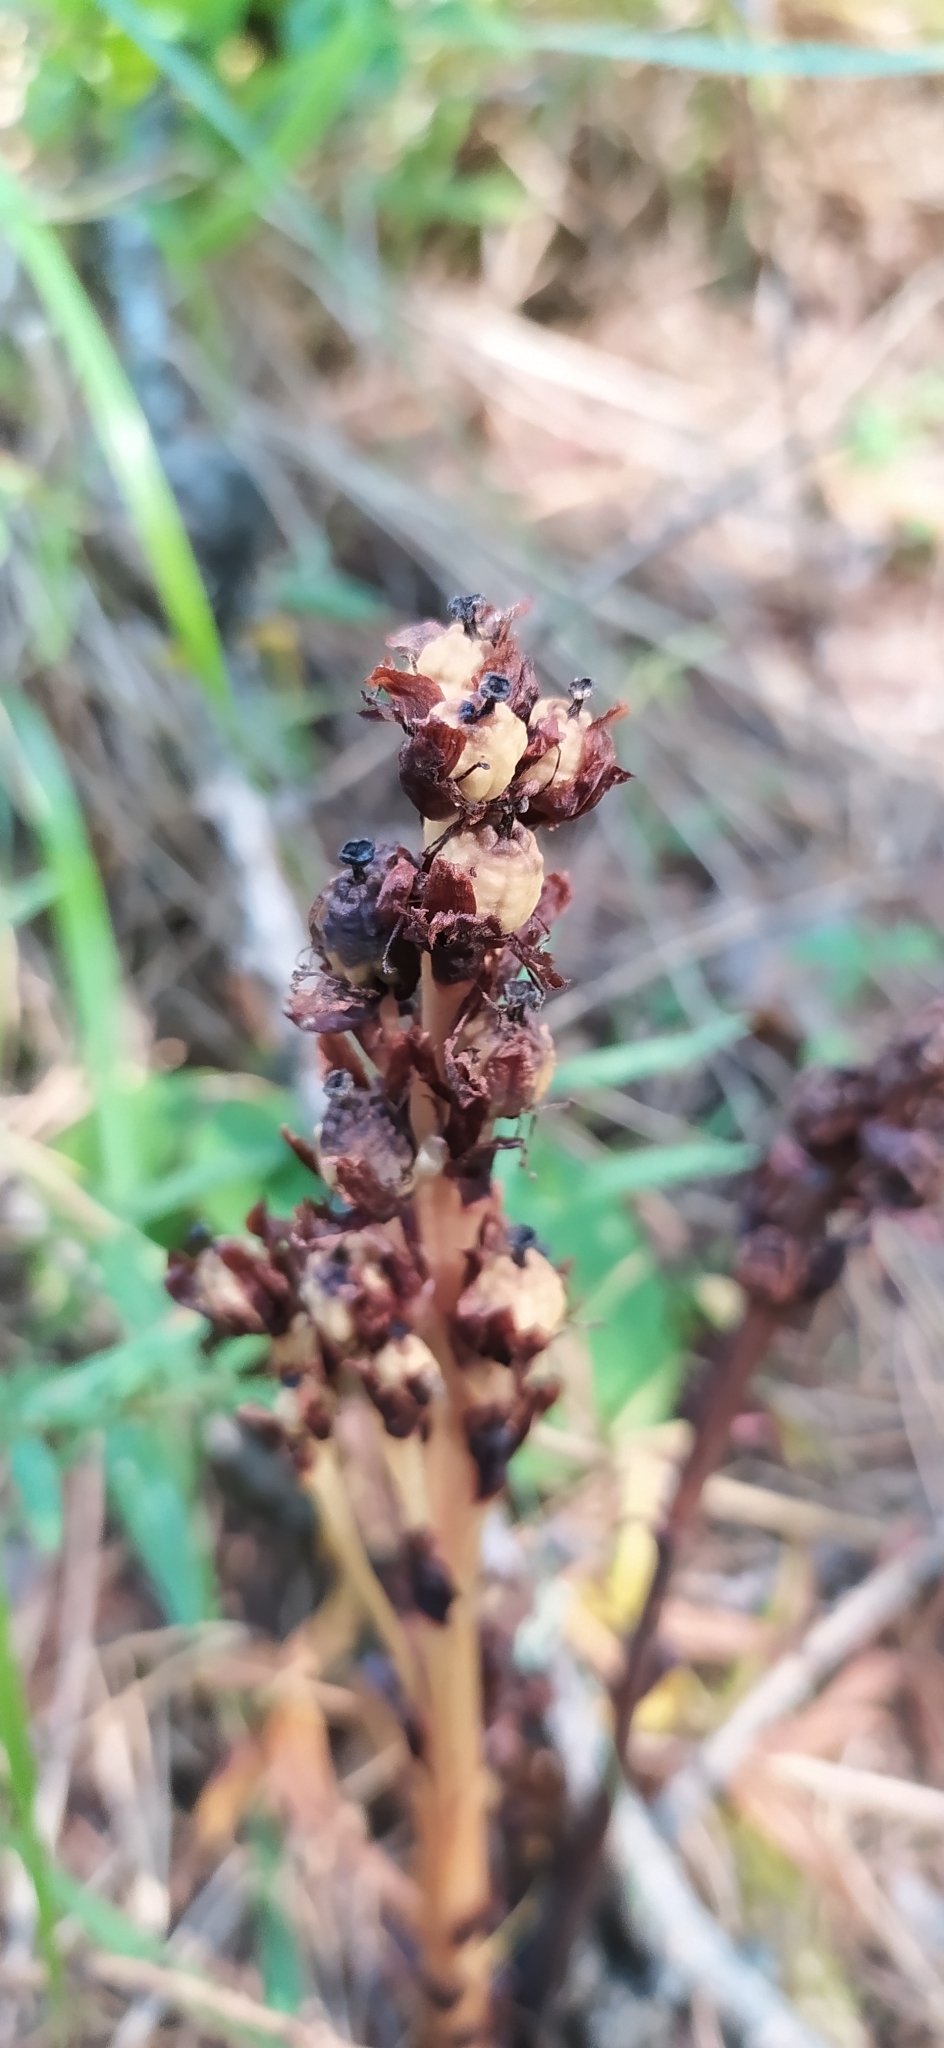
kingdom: Plantae
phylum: Tracheophyta
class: Magnoliopsida
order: Ericales
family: Ericaceae
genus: Hypopitys
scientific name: Hypopitys monotropa
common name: Yellow bird's-nest
